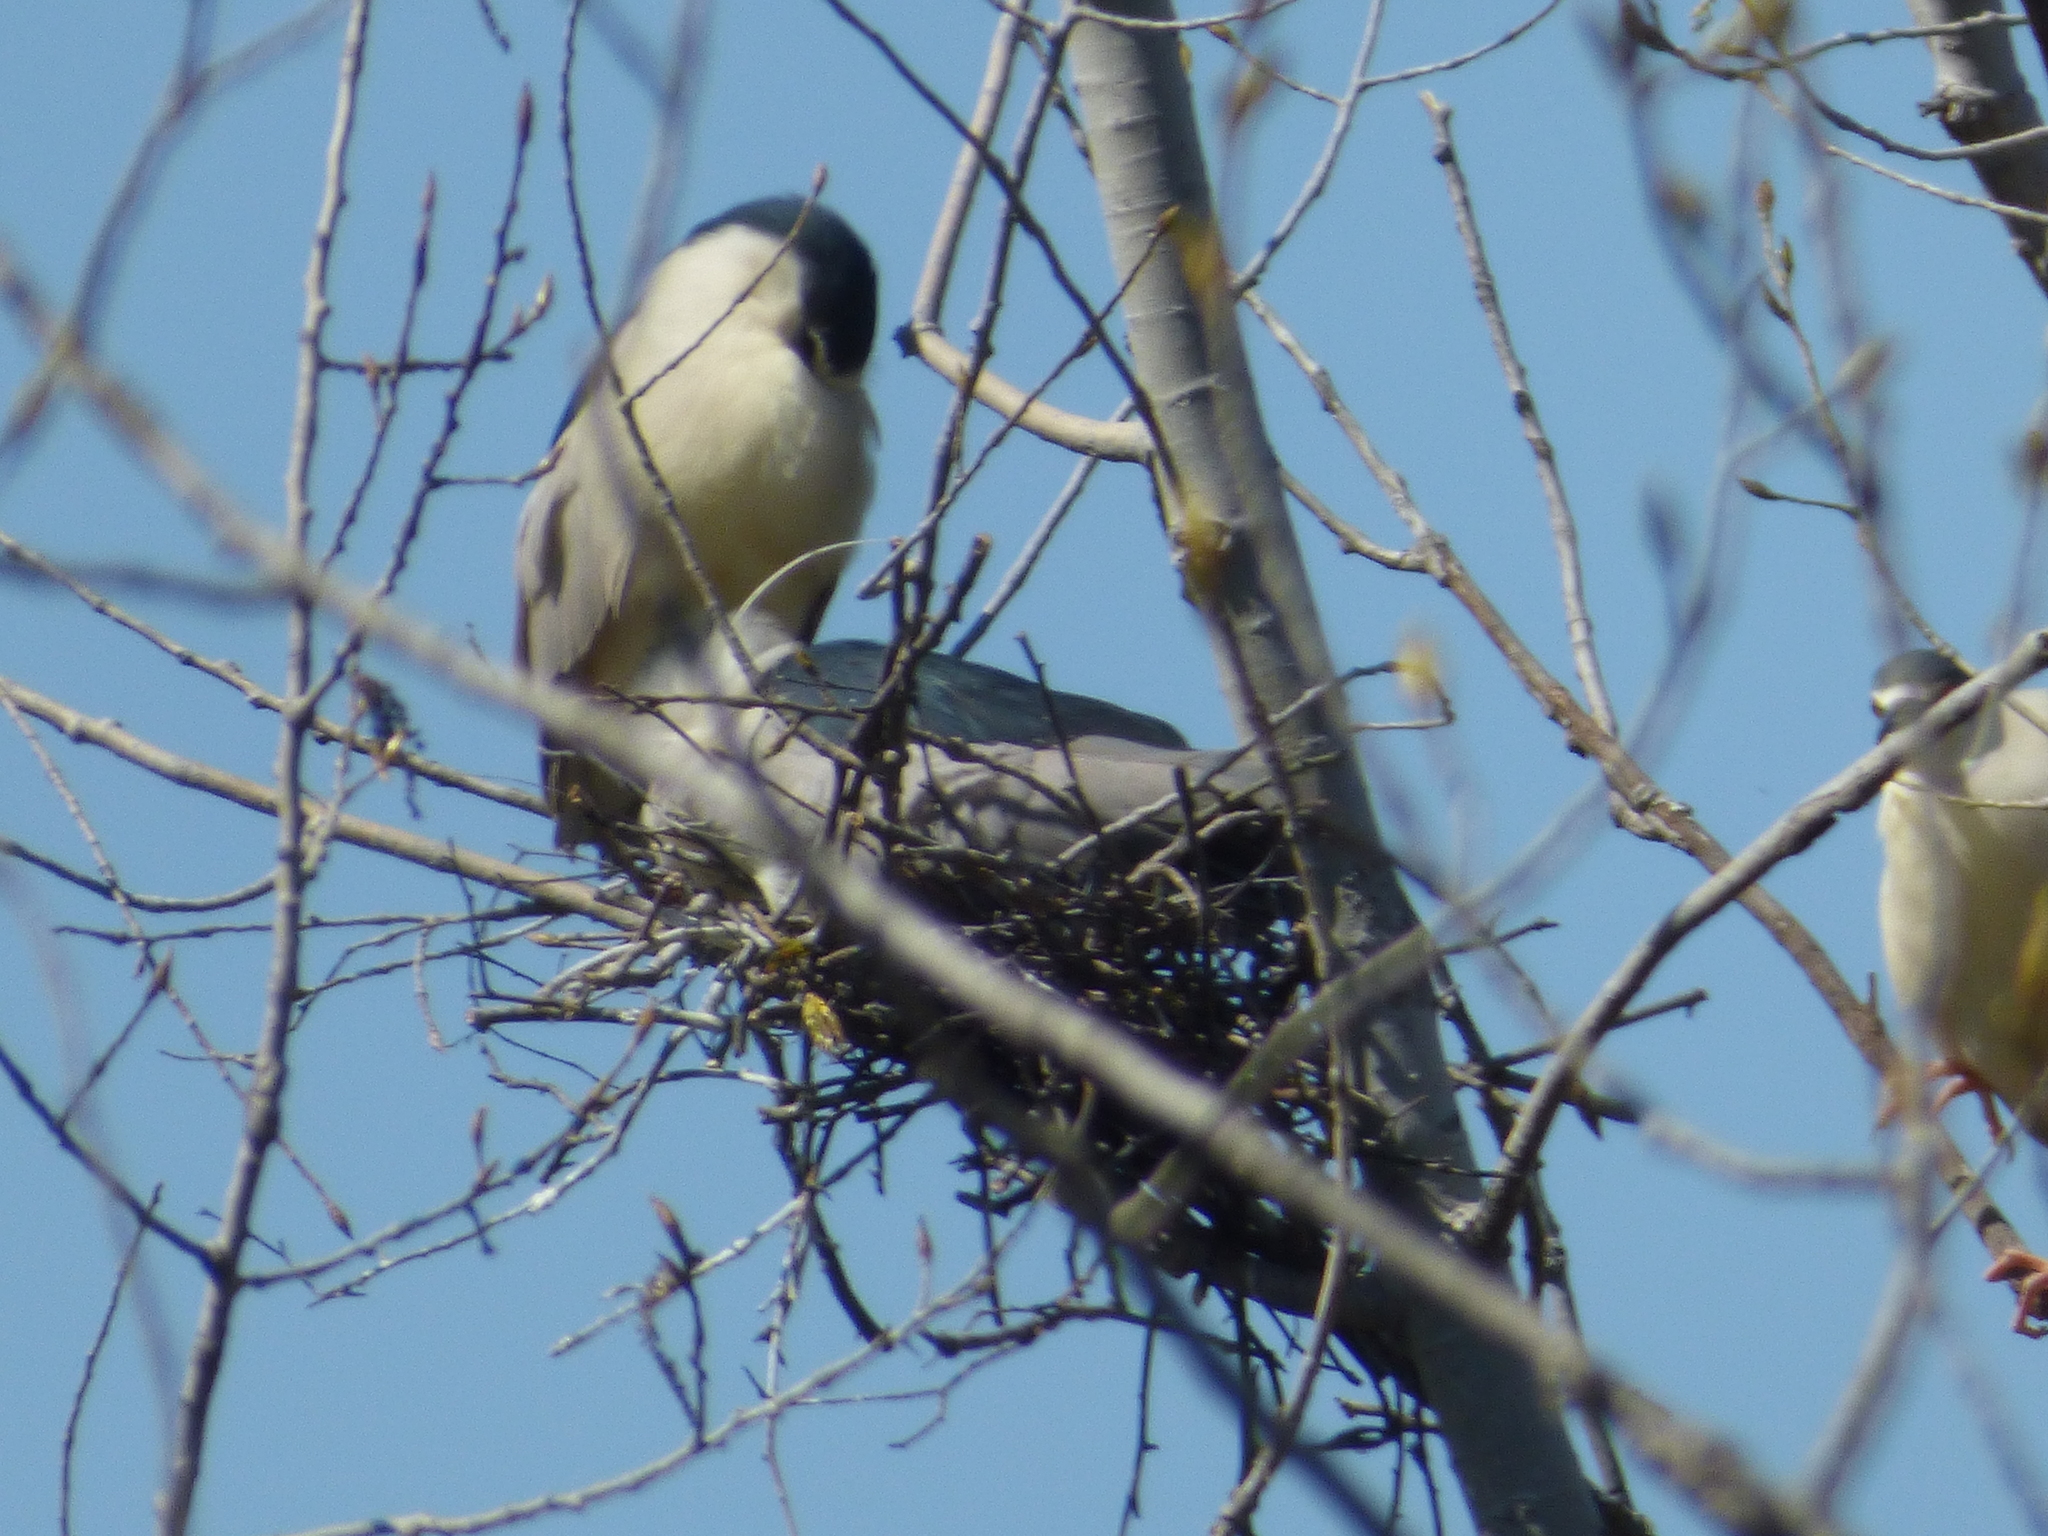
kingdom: Animalia
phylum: Chordata
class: Aves
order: Pelecaniformes
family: Ardeidae
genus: Nycticorax
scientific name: Nycticorax nycticorax
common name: Black-crowned night heron
